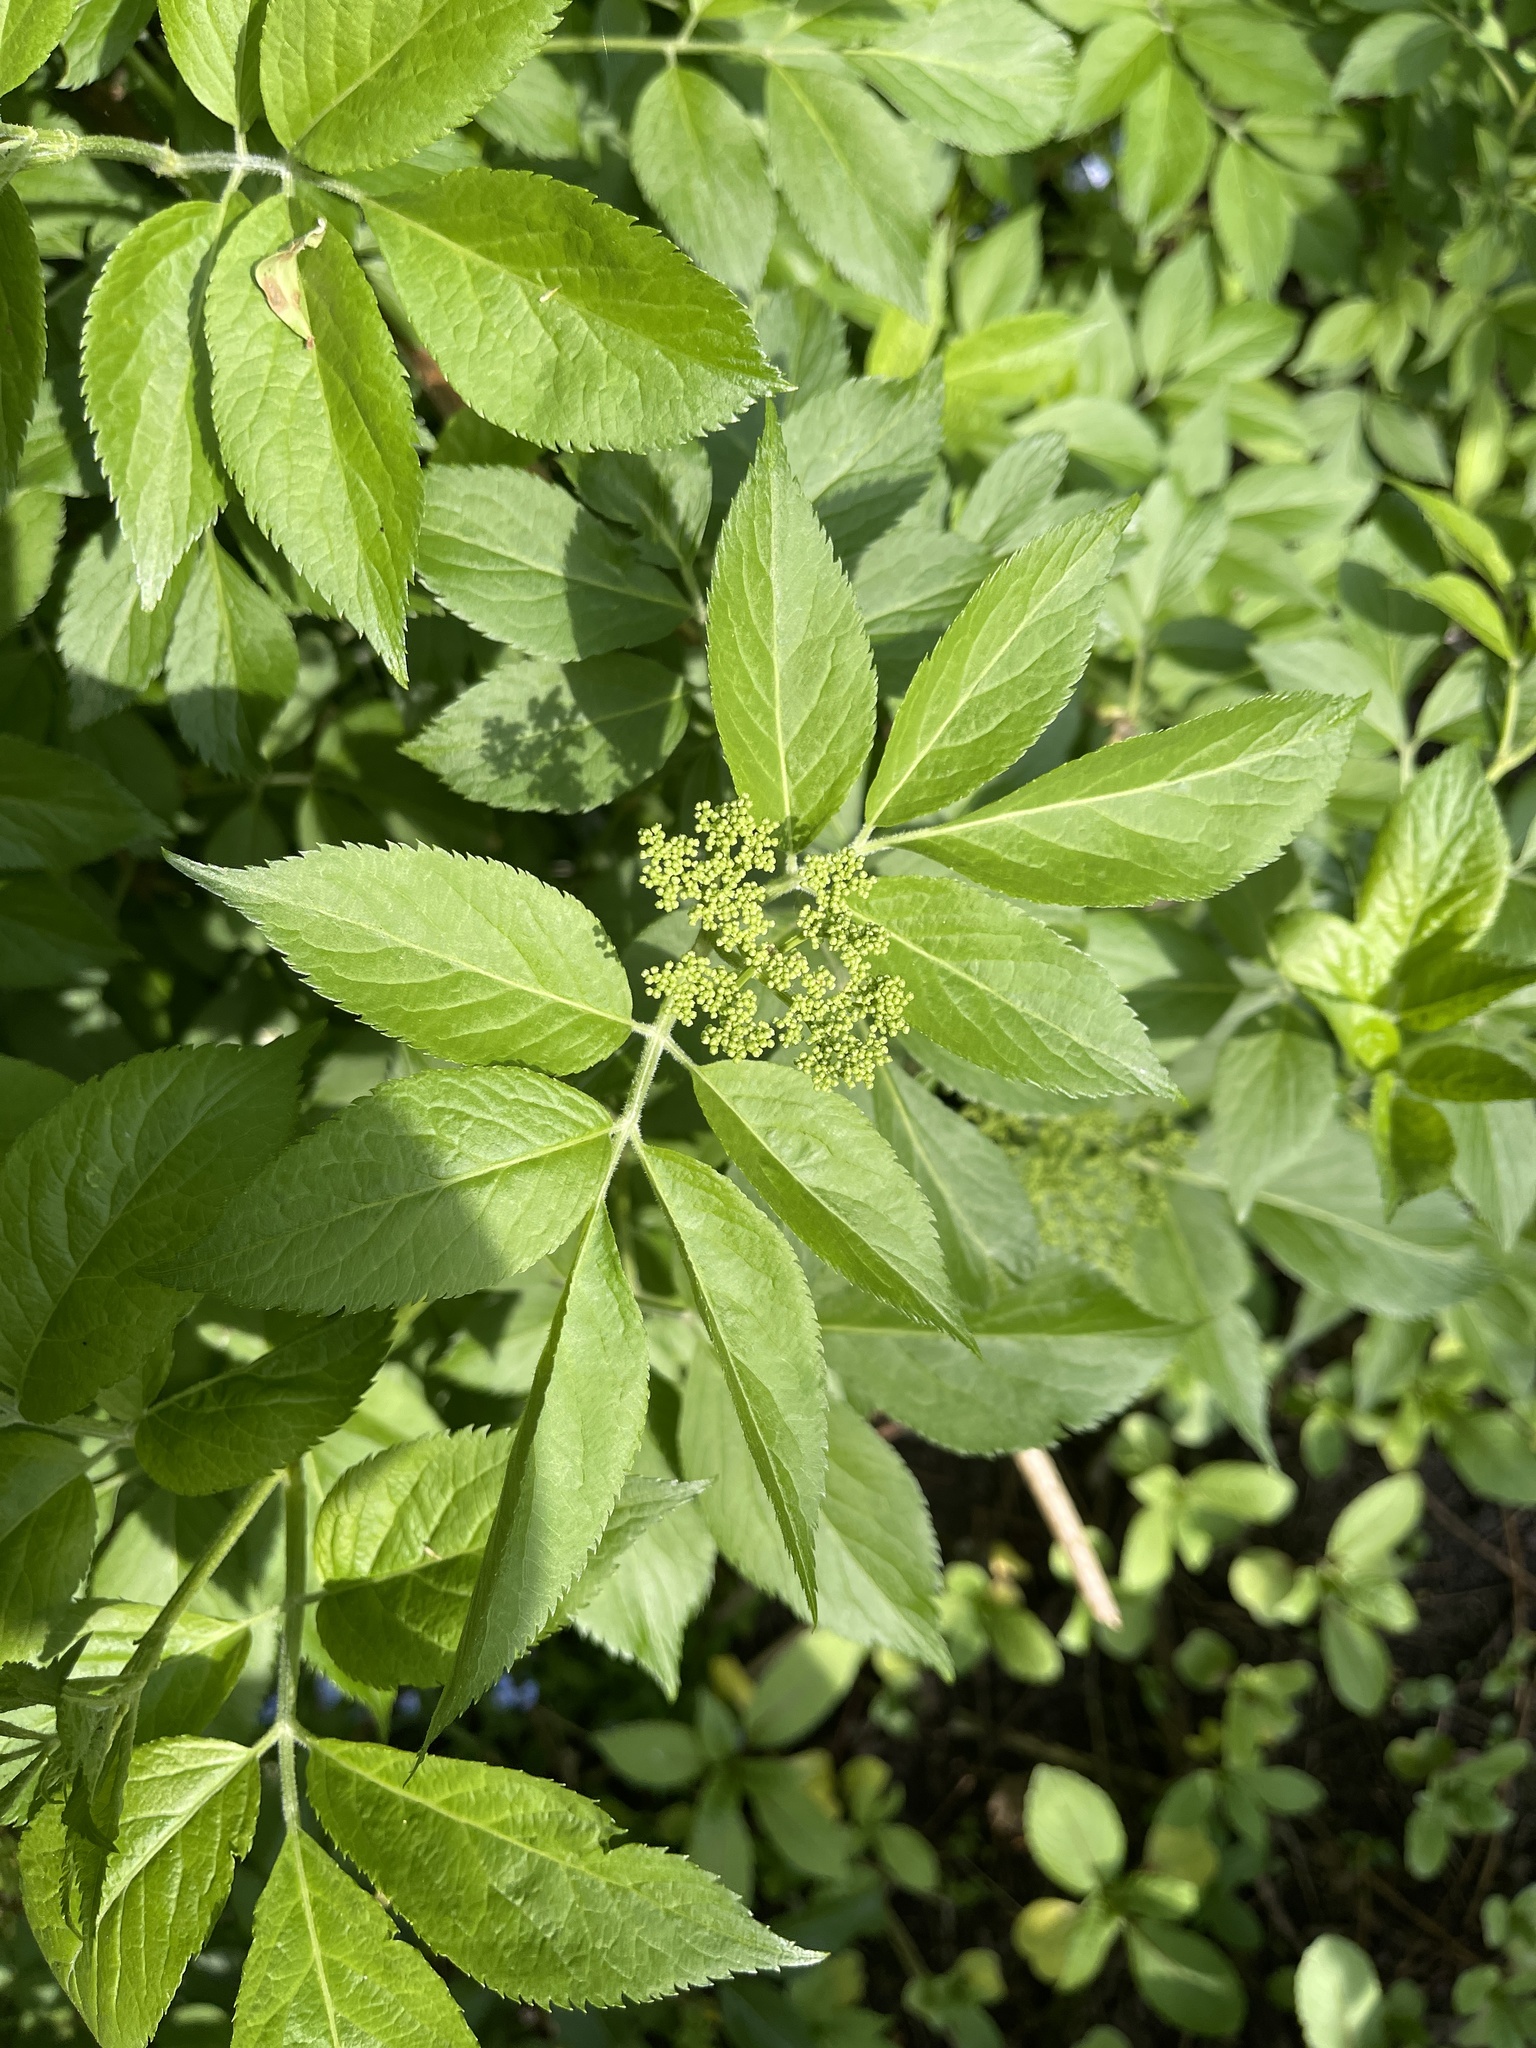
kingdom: Plantae
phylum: Tracheophyta
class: Magnoliopsida
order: Dipsacales
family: Viburnaceae
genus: Sambucus
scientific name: Sambucus nigra
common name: Elder
